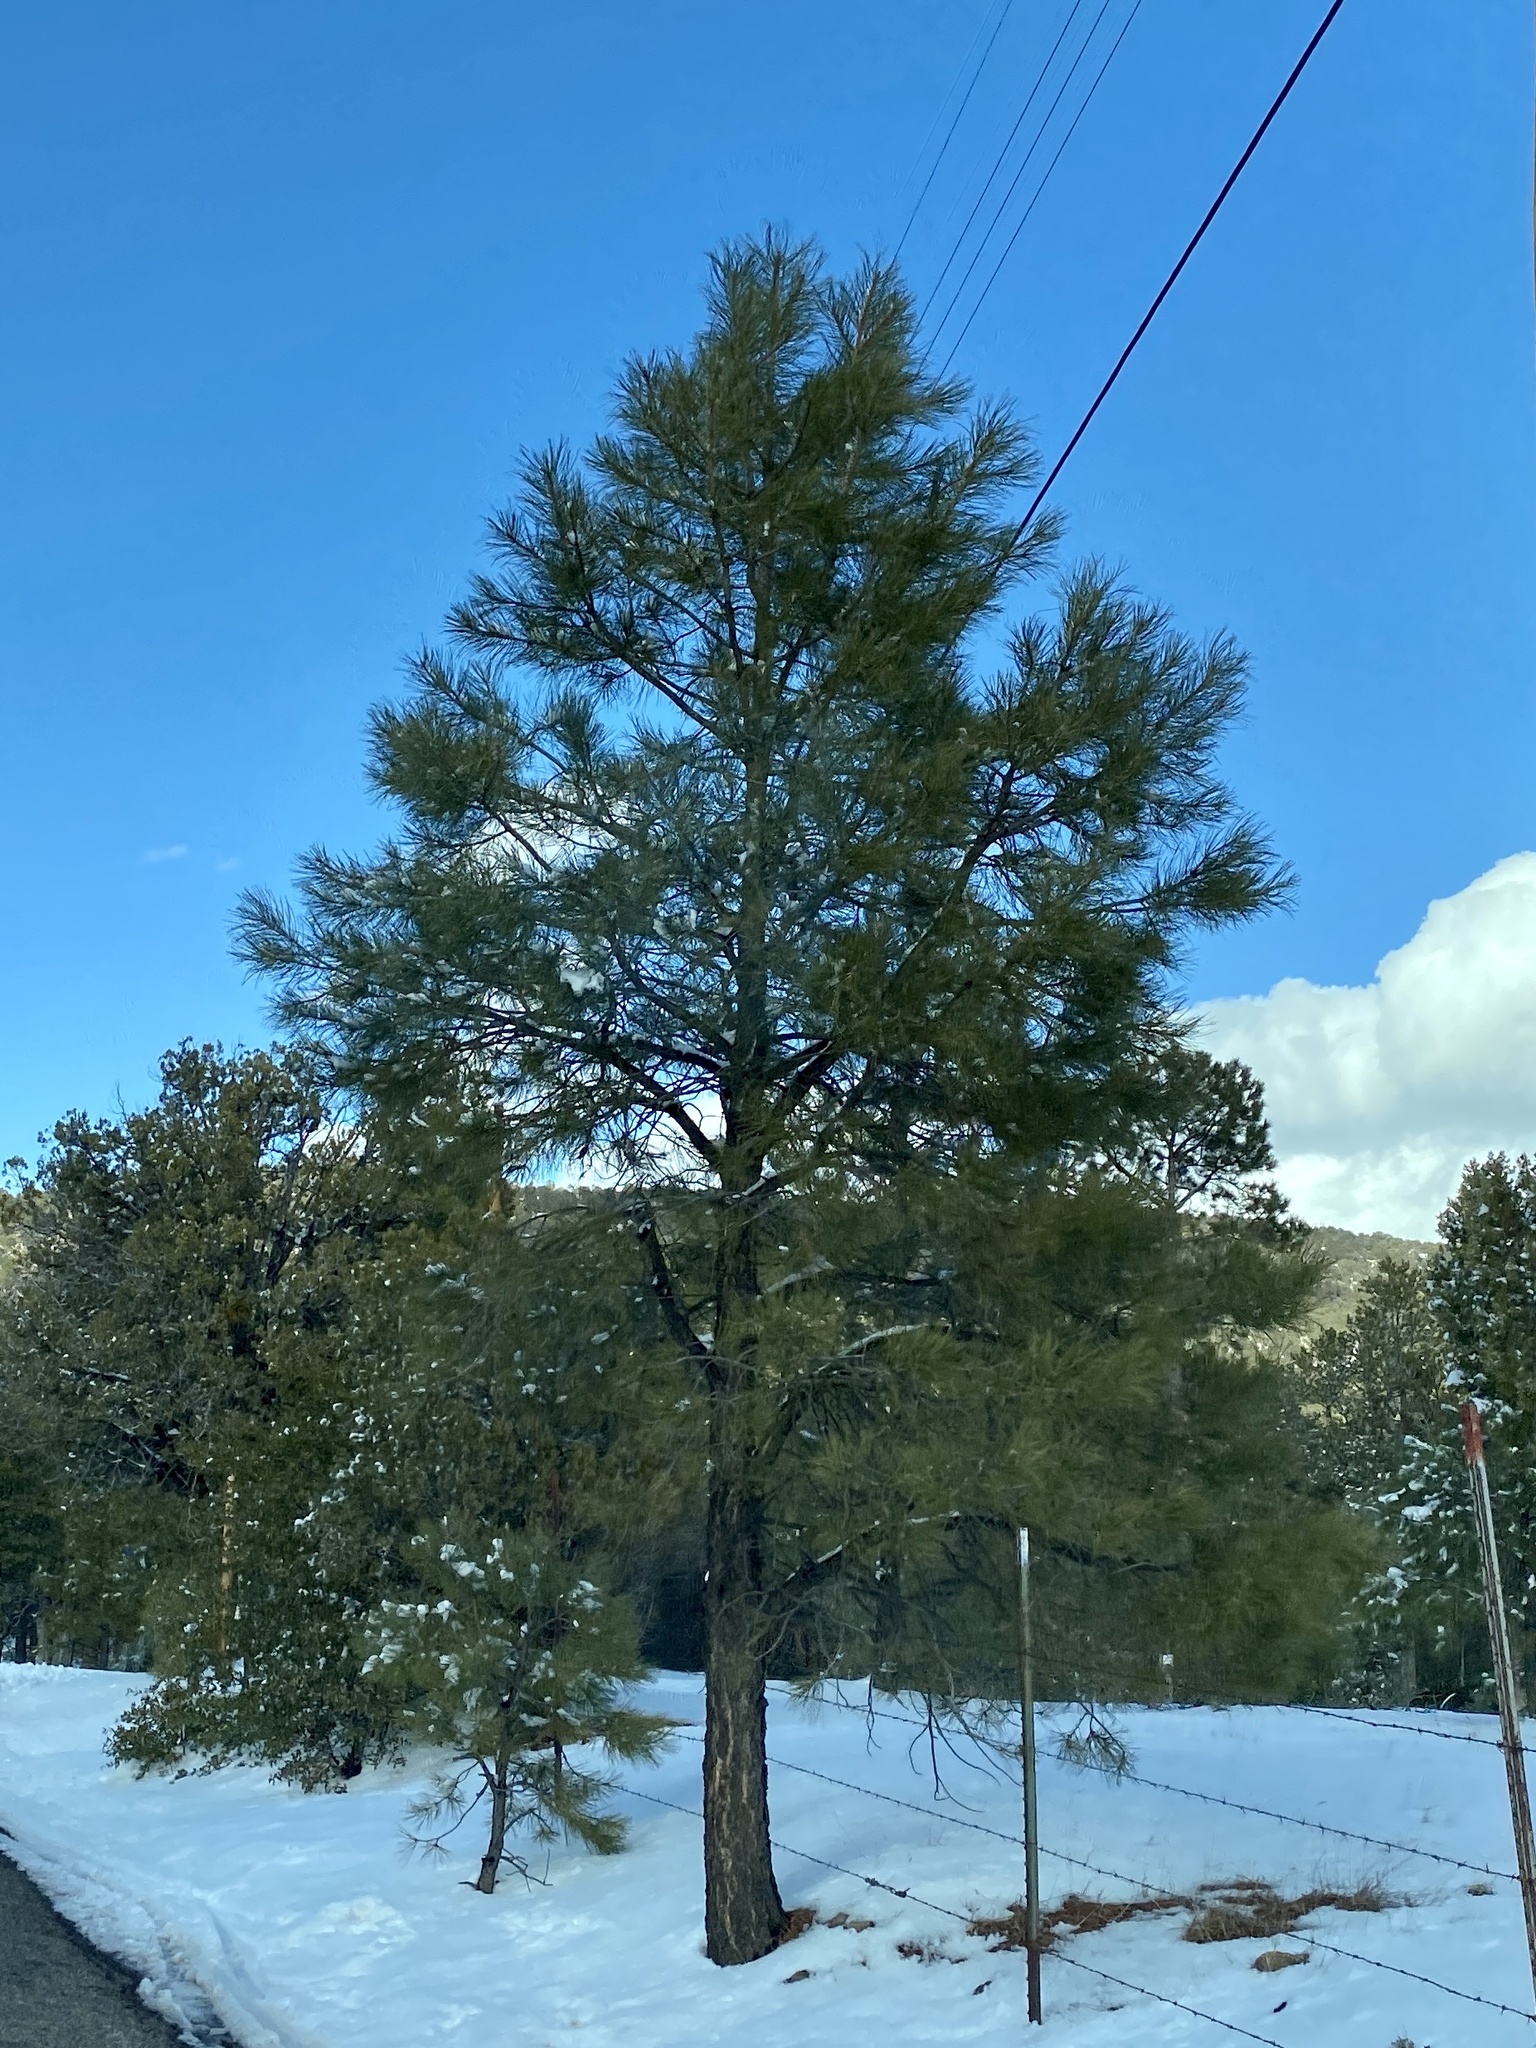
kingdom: Plantae
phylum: Tracheophyta
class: Pinopsida
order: Pinales
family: Pinaceae
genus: Pinus
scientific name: Pinus ponderosa
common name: Western yellow-pine
